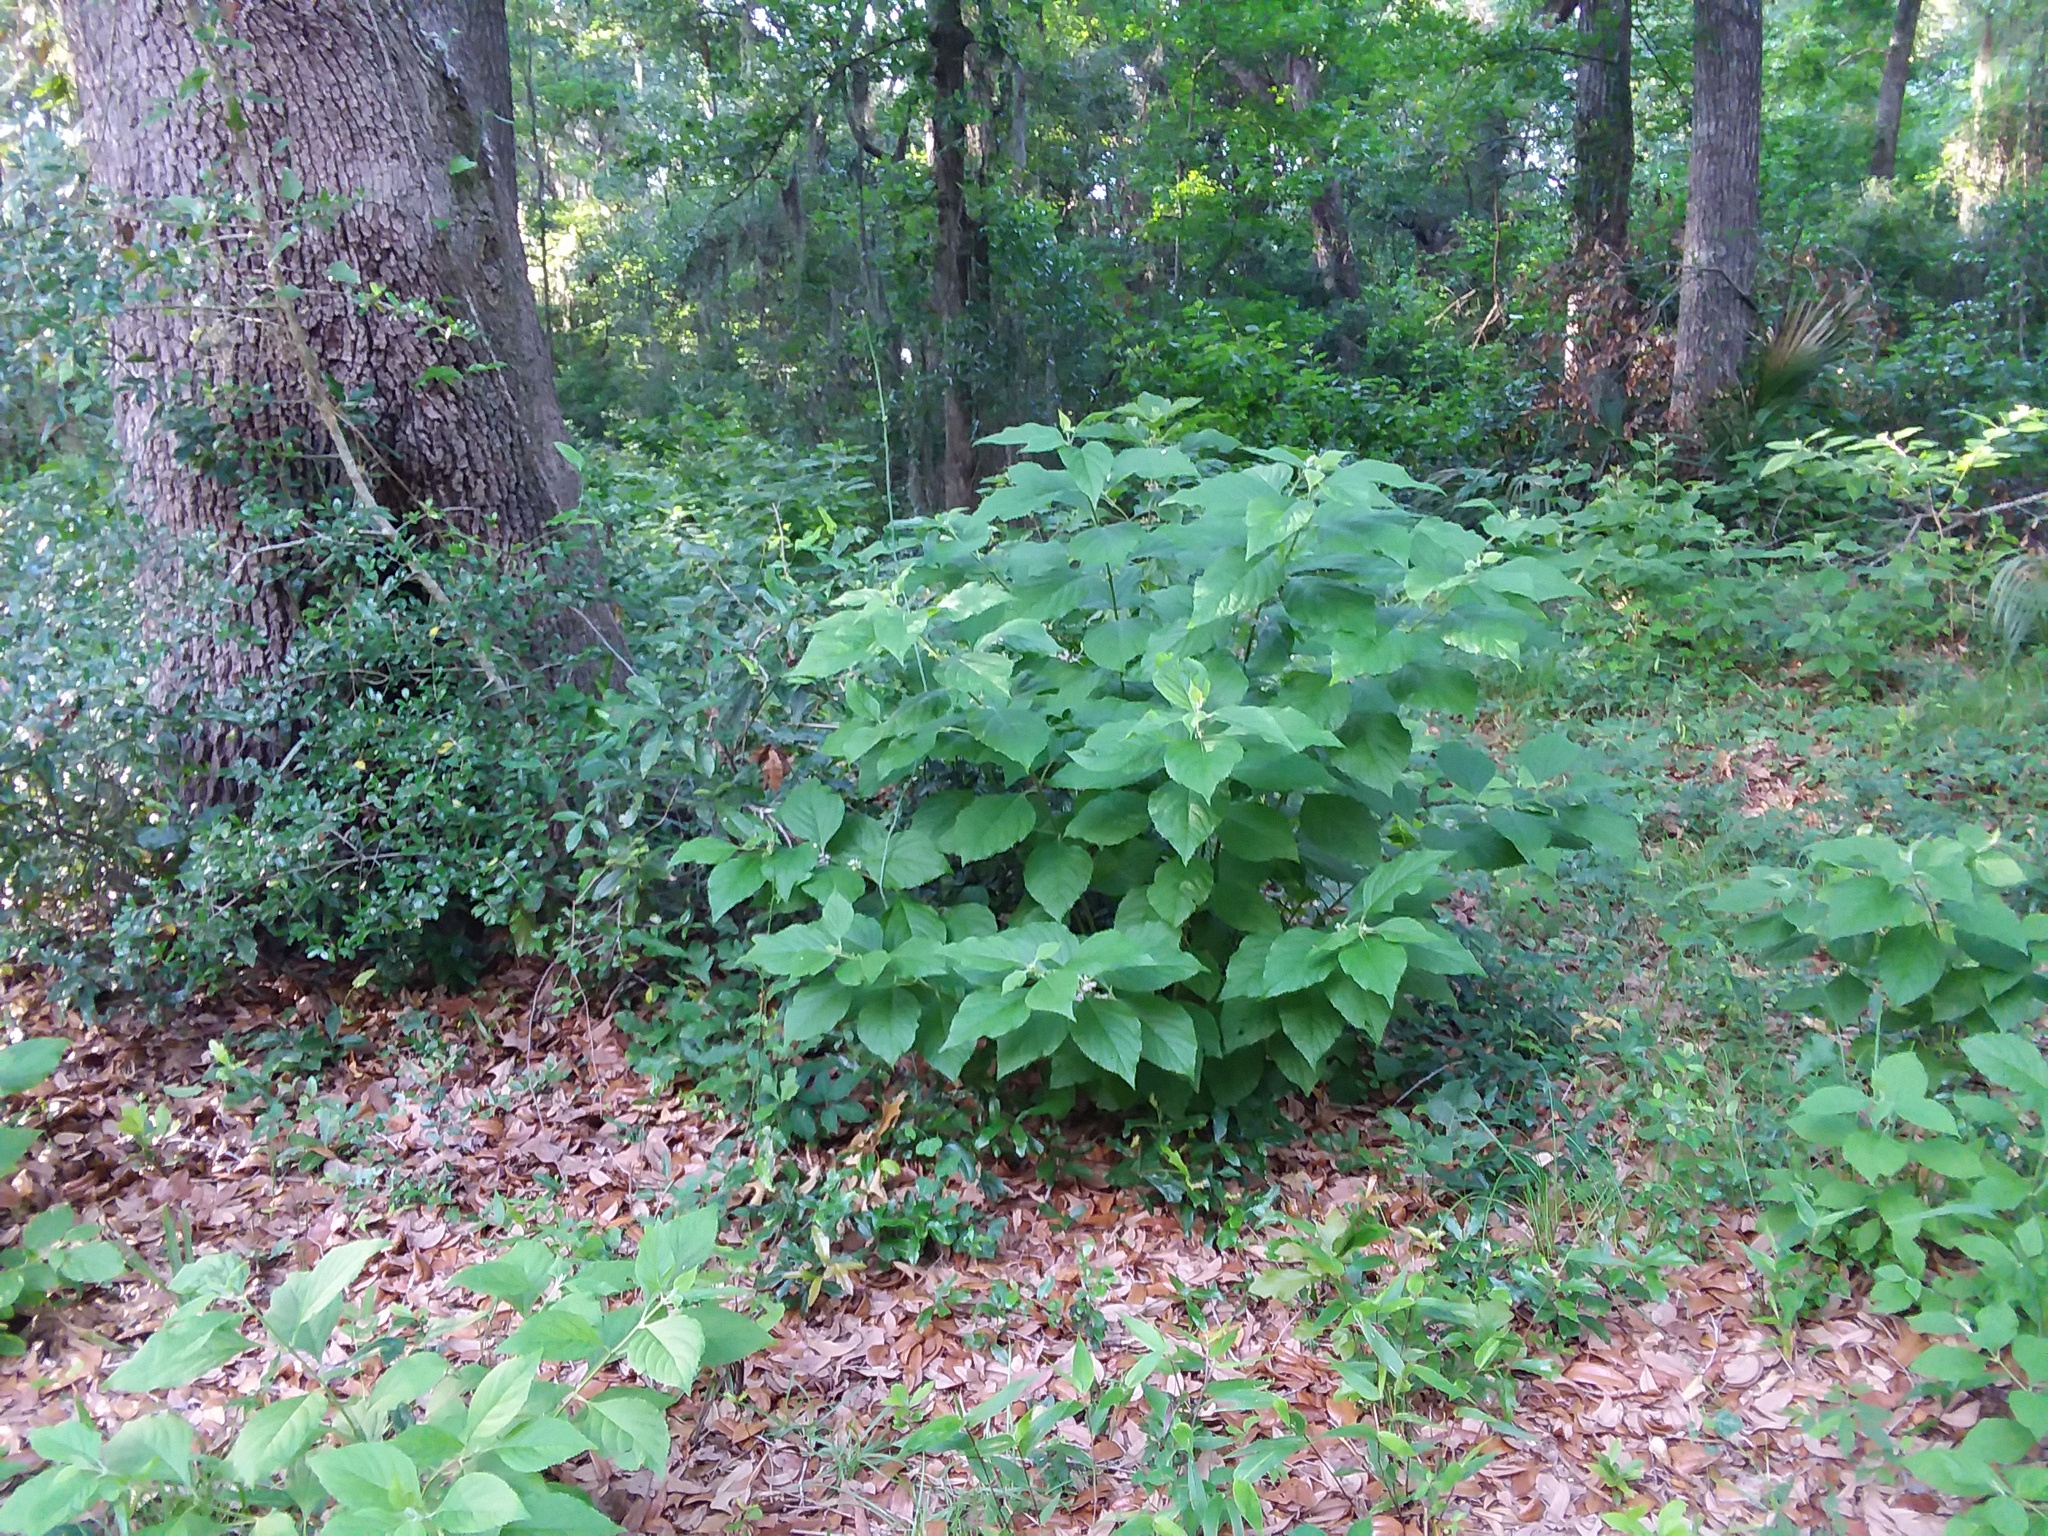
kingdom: Plantae
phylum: Tracheophyta
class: Magnoliopsida
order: Lamiales
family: Lamiaceae
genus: Callicarpa
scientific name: Callicarpa americana
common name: American beautyberry
